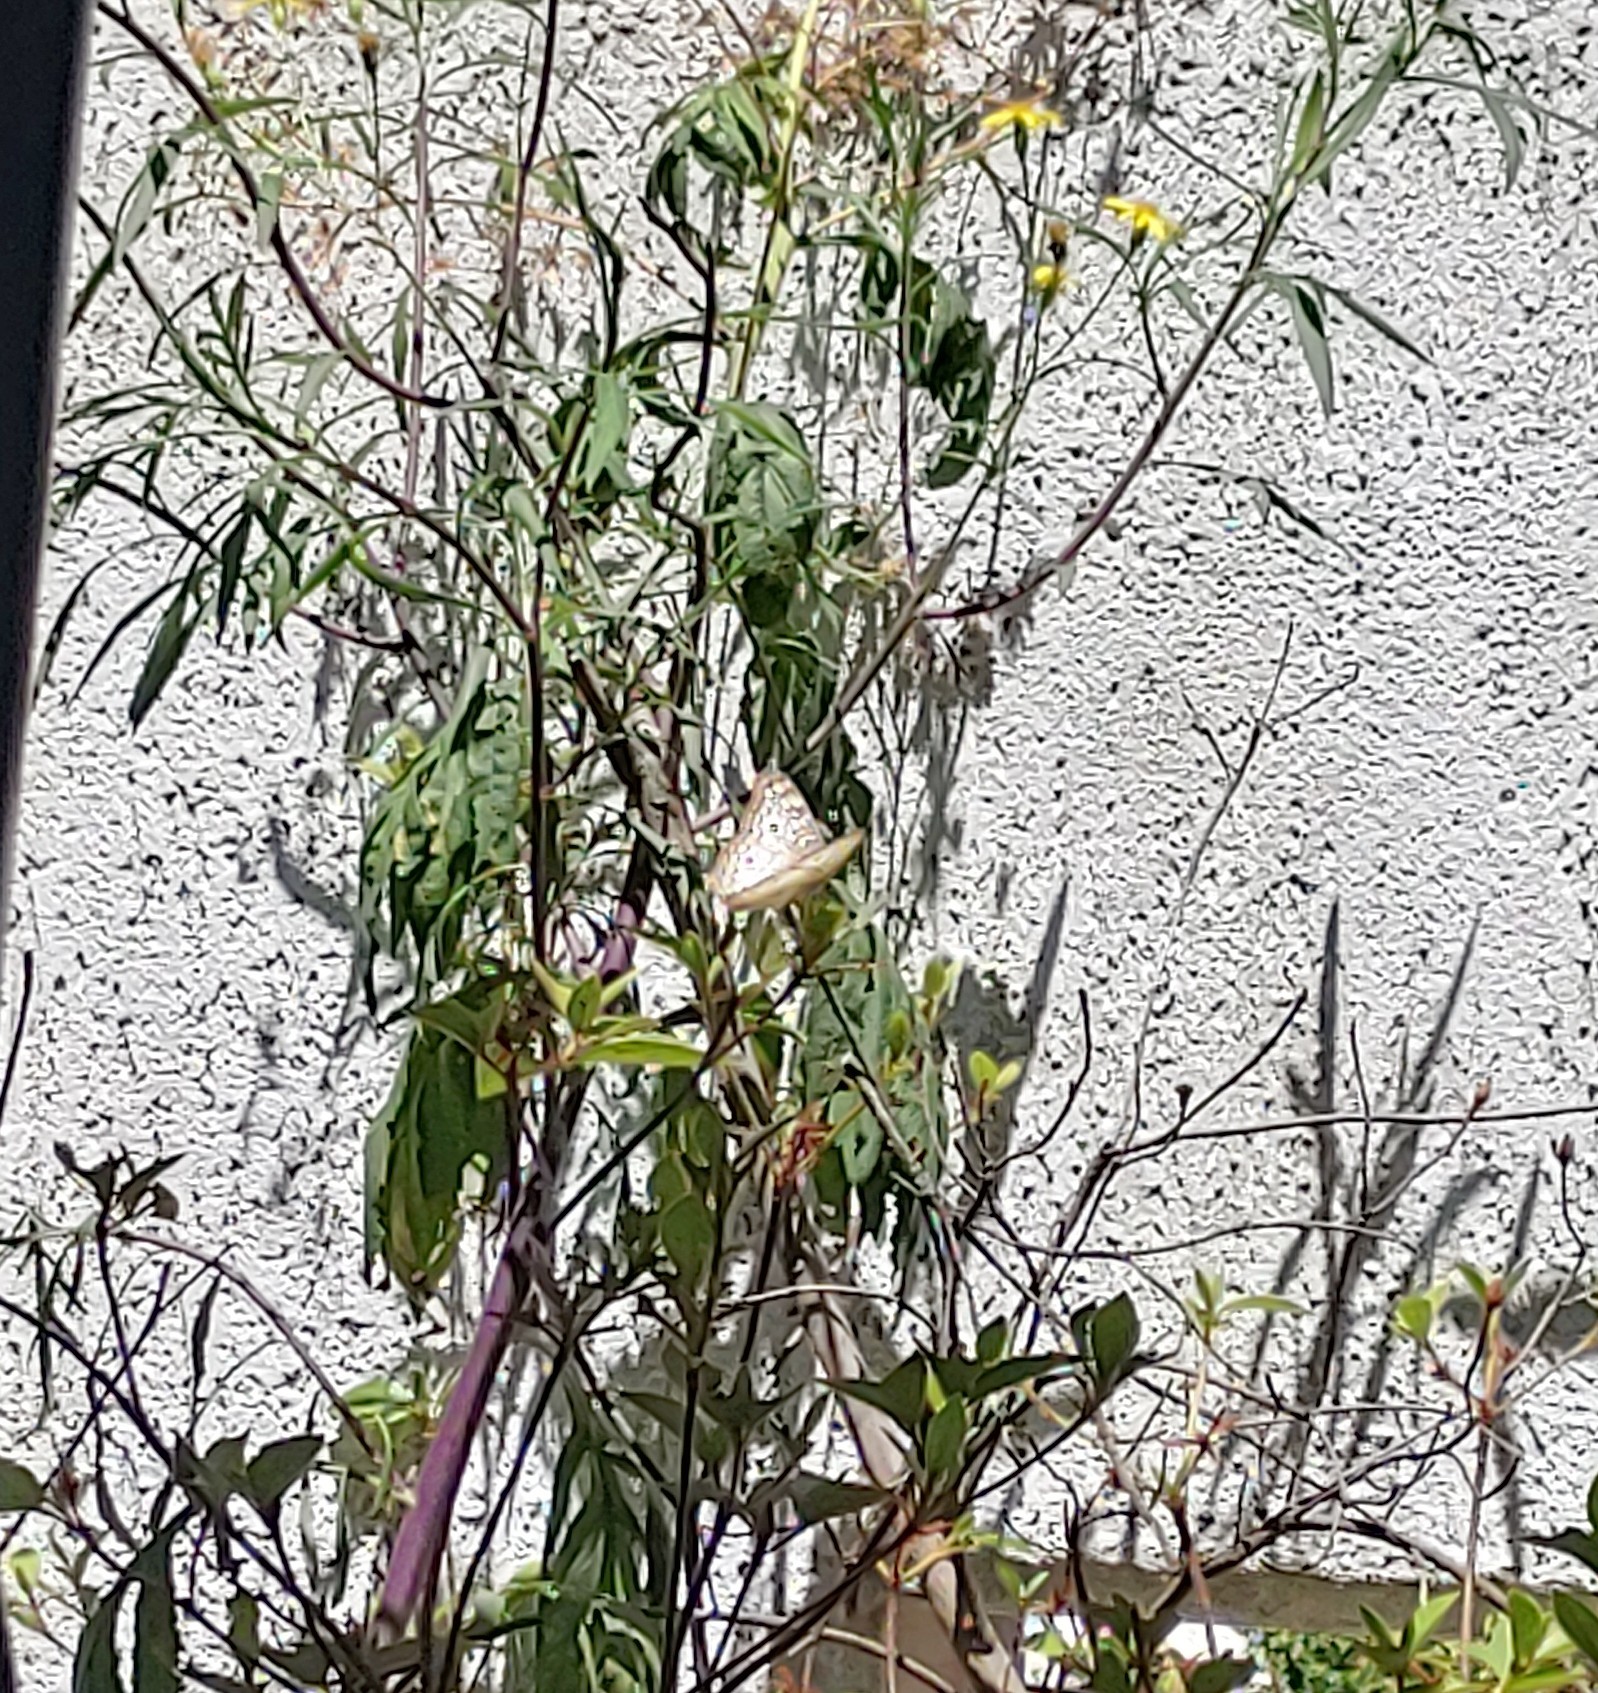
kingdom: Animalia
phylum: Arthropoda
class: Insecta
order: Lepidoptera
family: Nymphalidae
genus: Anartia
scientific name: Anartia jatrophae
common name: White peacock
